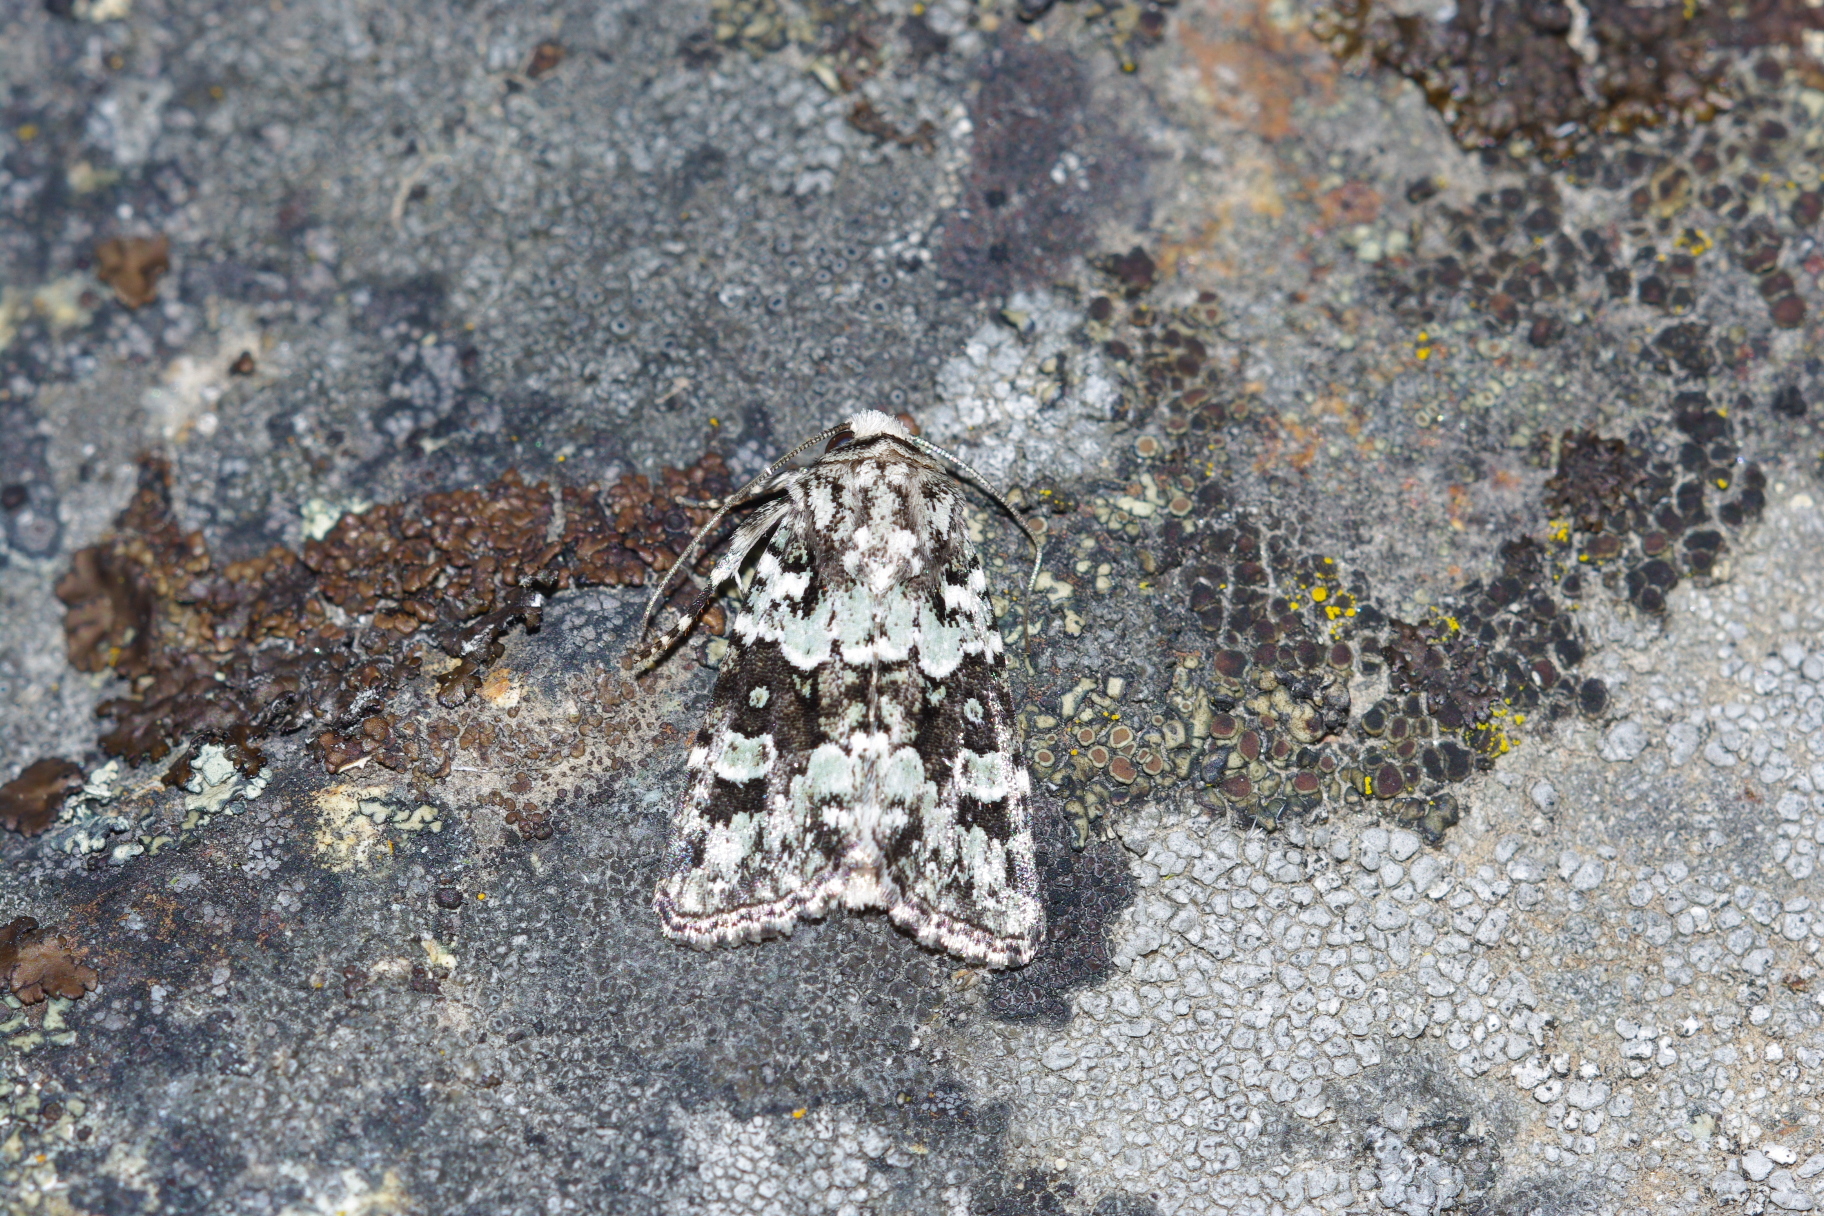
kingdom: Animalia
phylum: Arthropoda
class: Insecta
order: Lepidoptera
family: Noctuidae
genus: Lacinipolia
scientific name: Lacinipolia strigicollis
